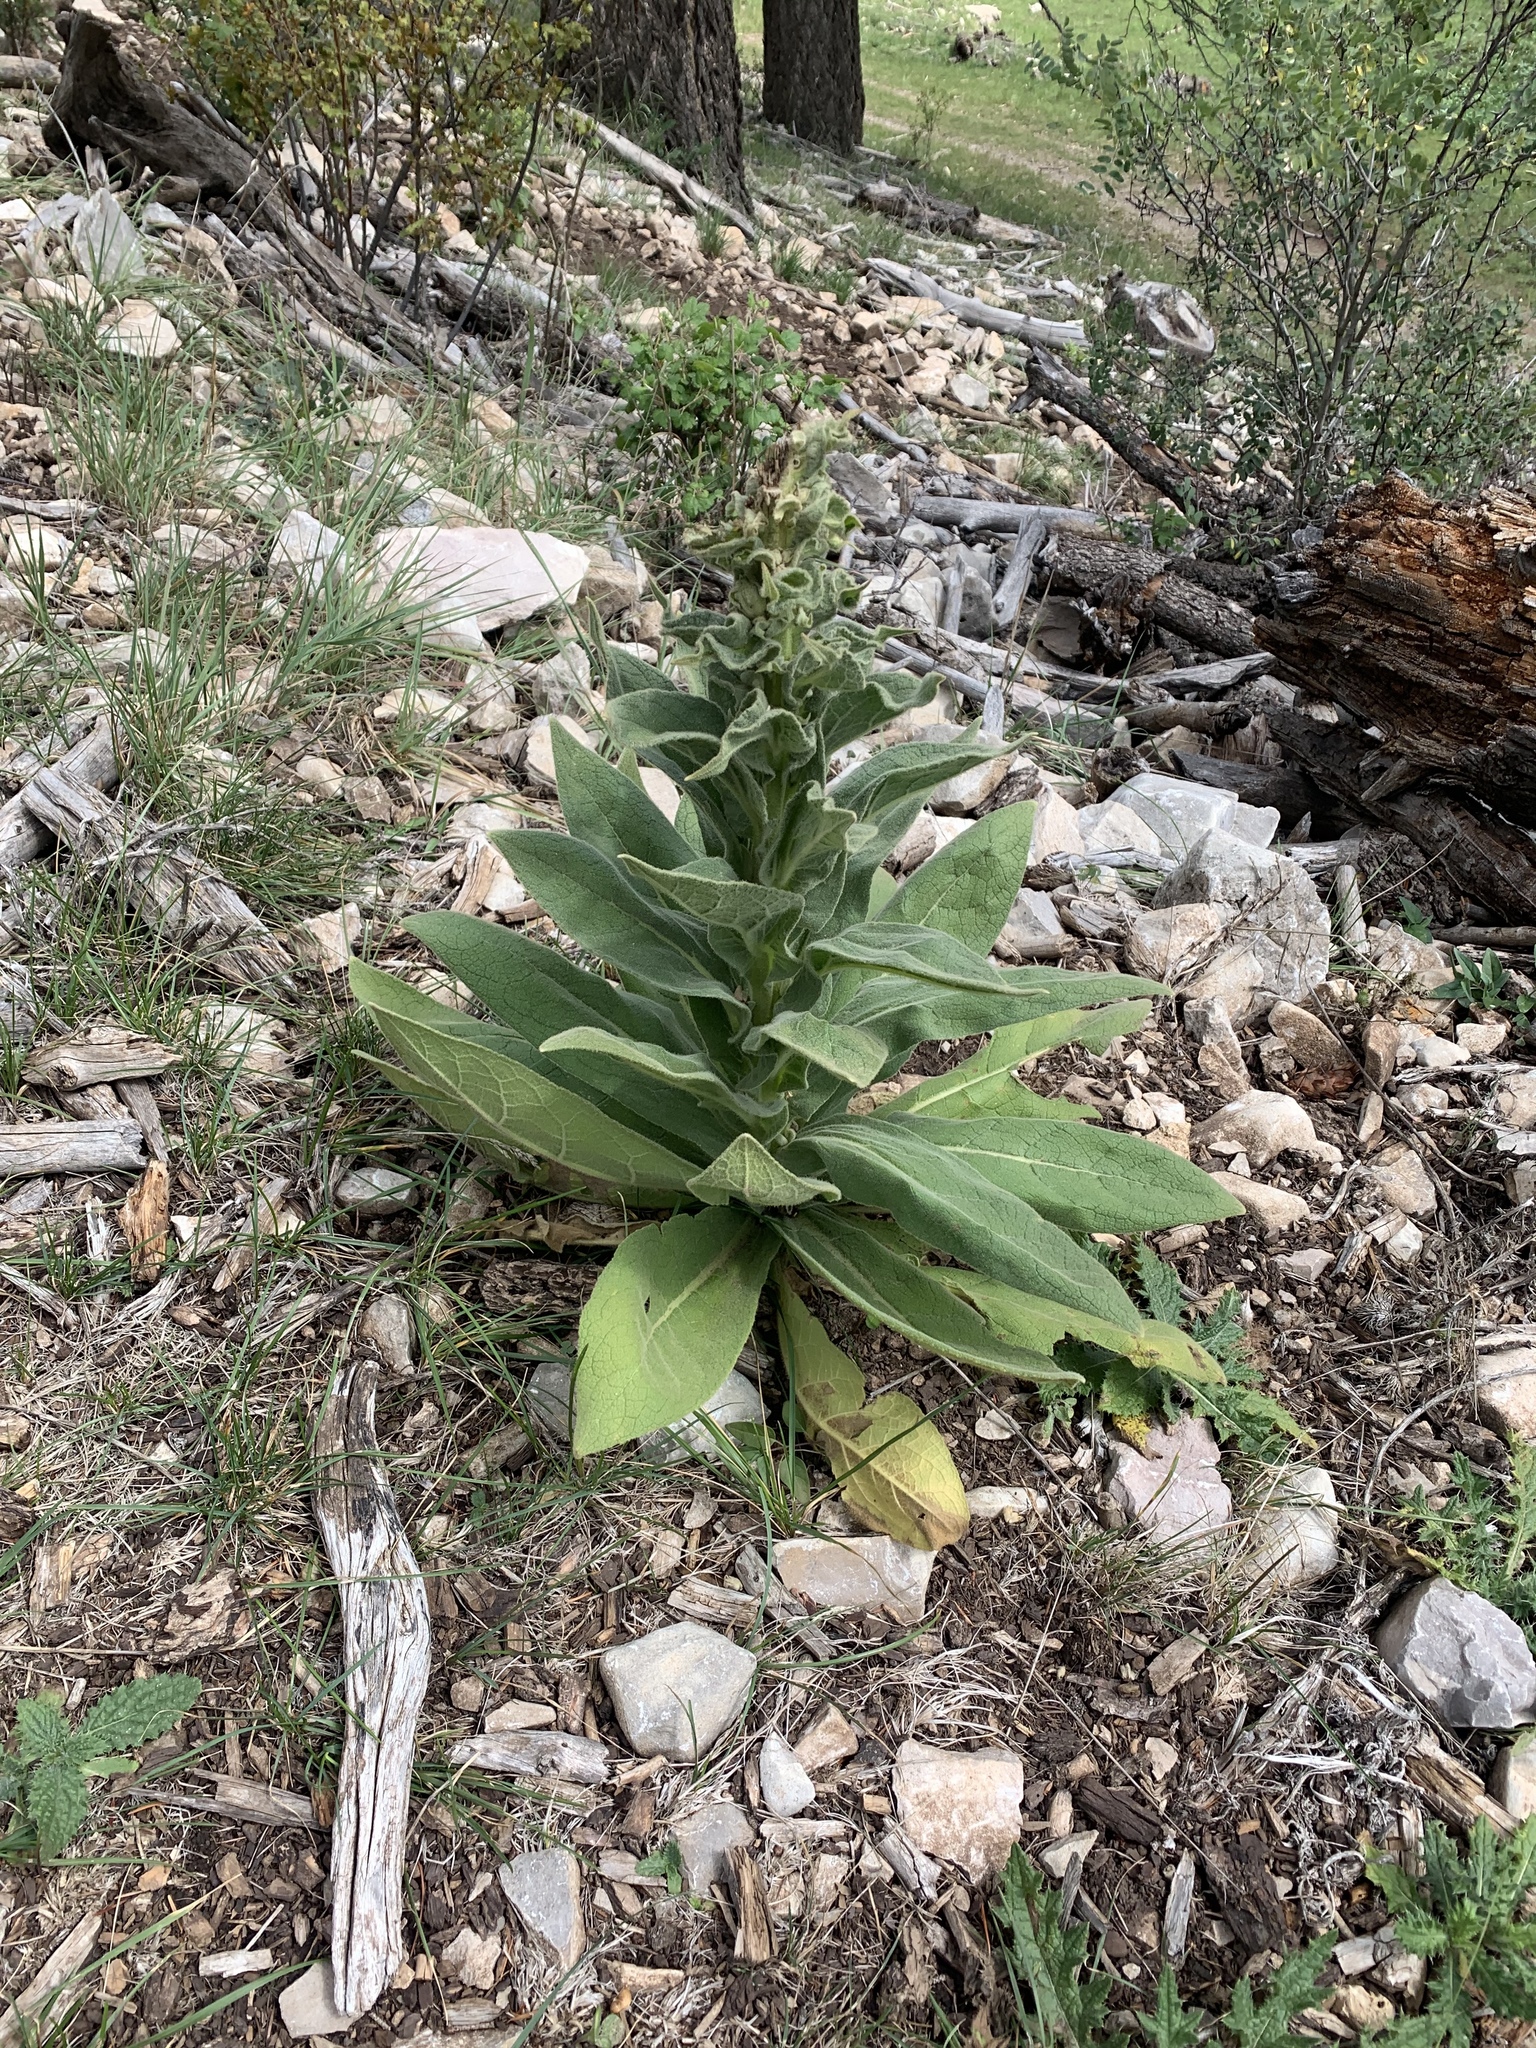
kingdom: Plantae
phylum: Tracheophyta
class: Magnoliopsida
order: Lamiales
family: Scrophulariaceae
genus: Verbascum
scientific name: Verbascum thapsus
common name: Common mullein
